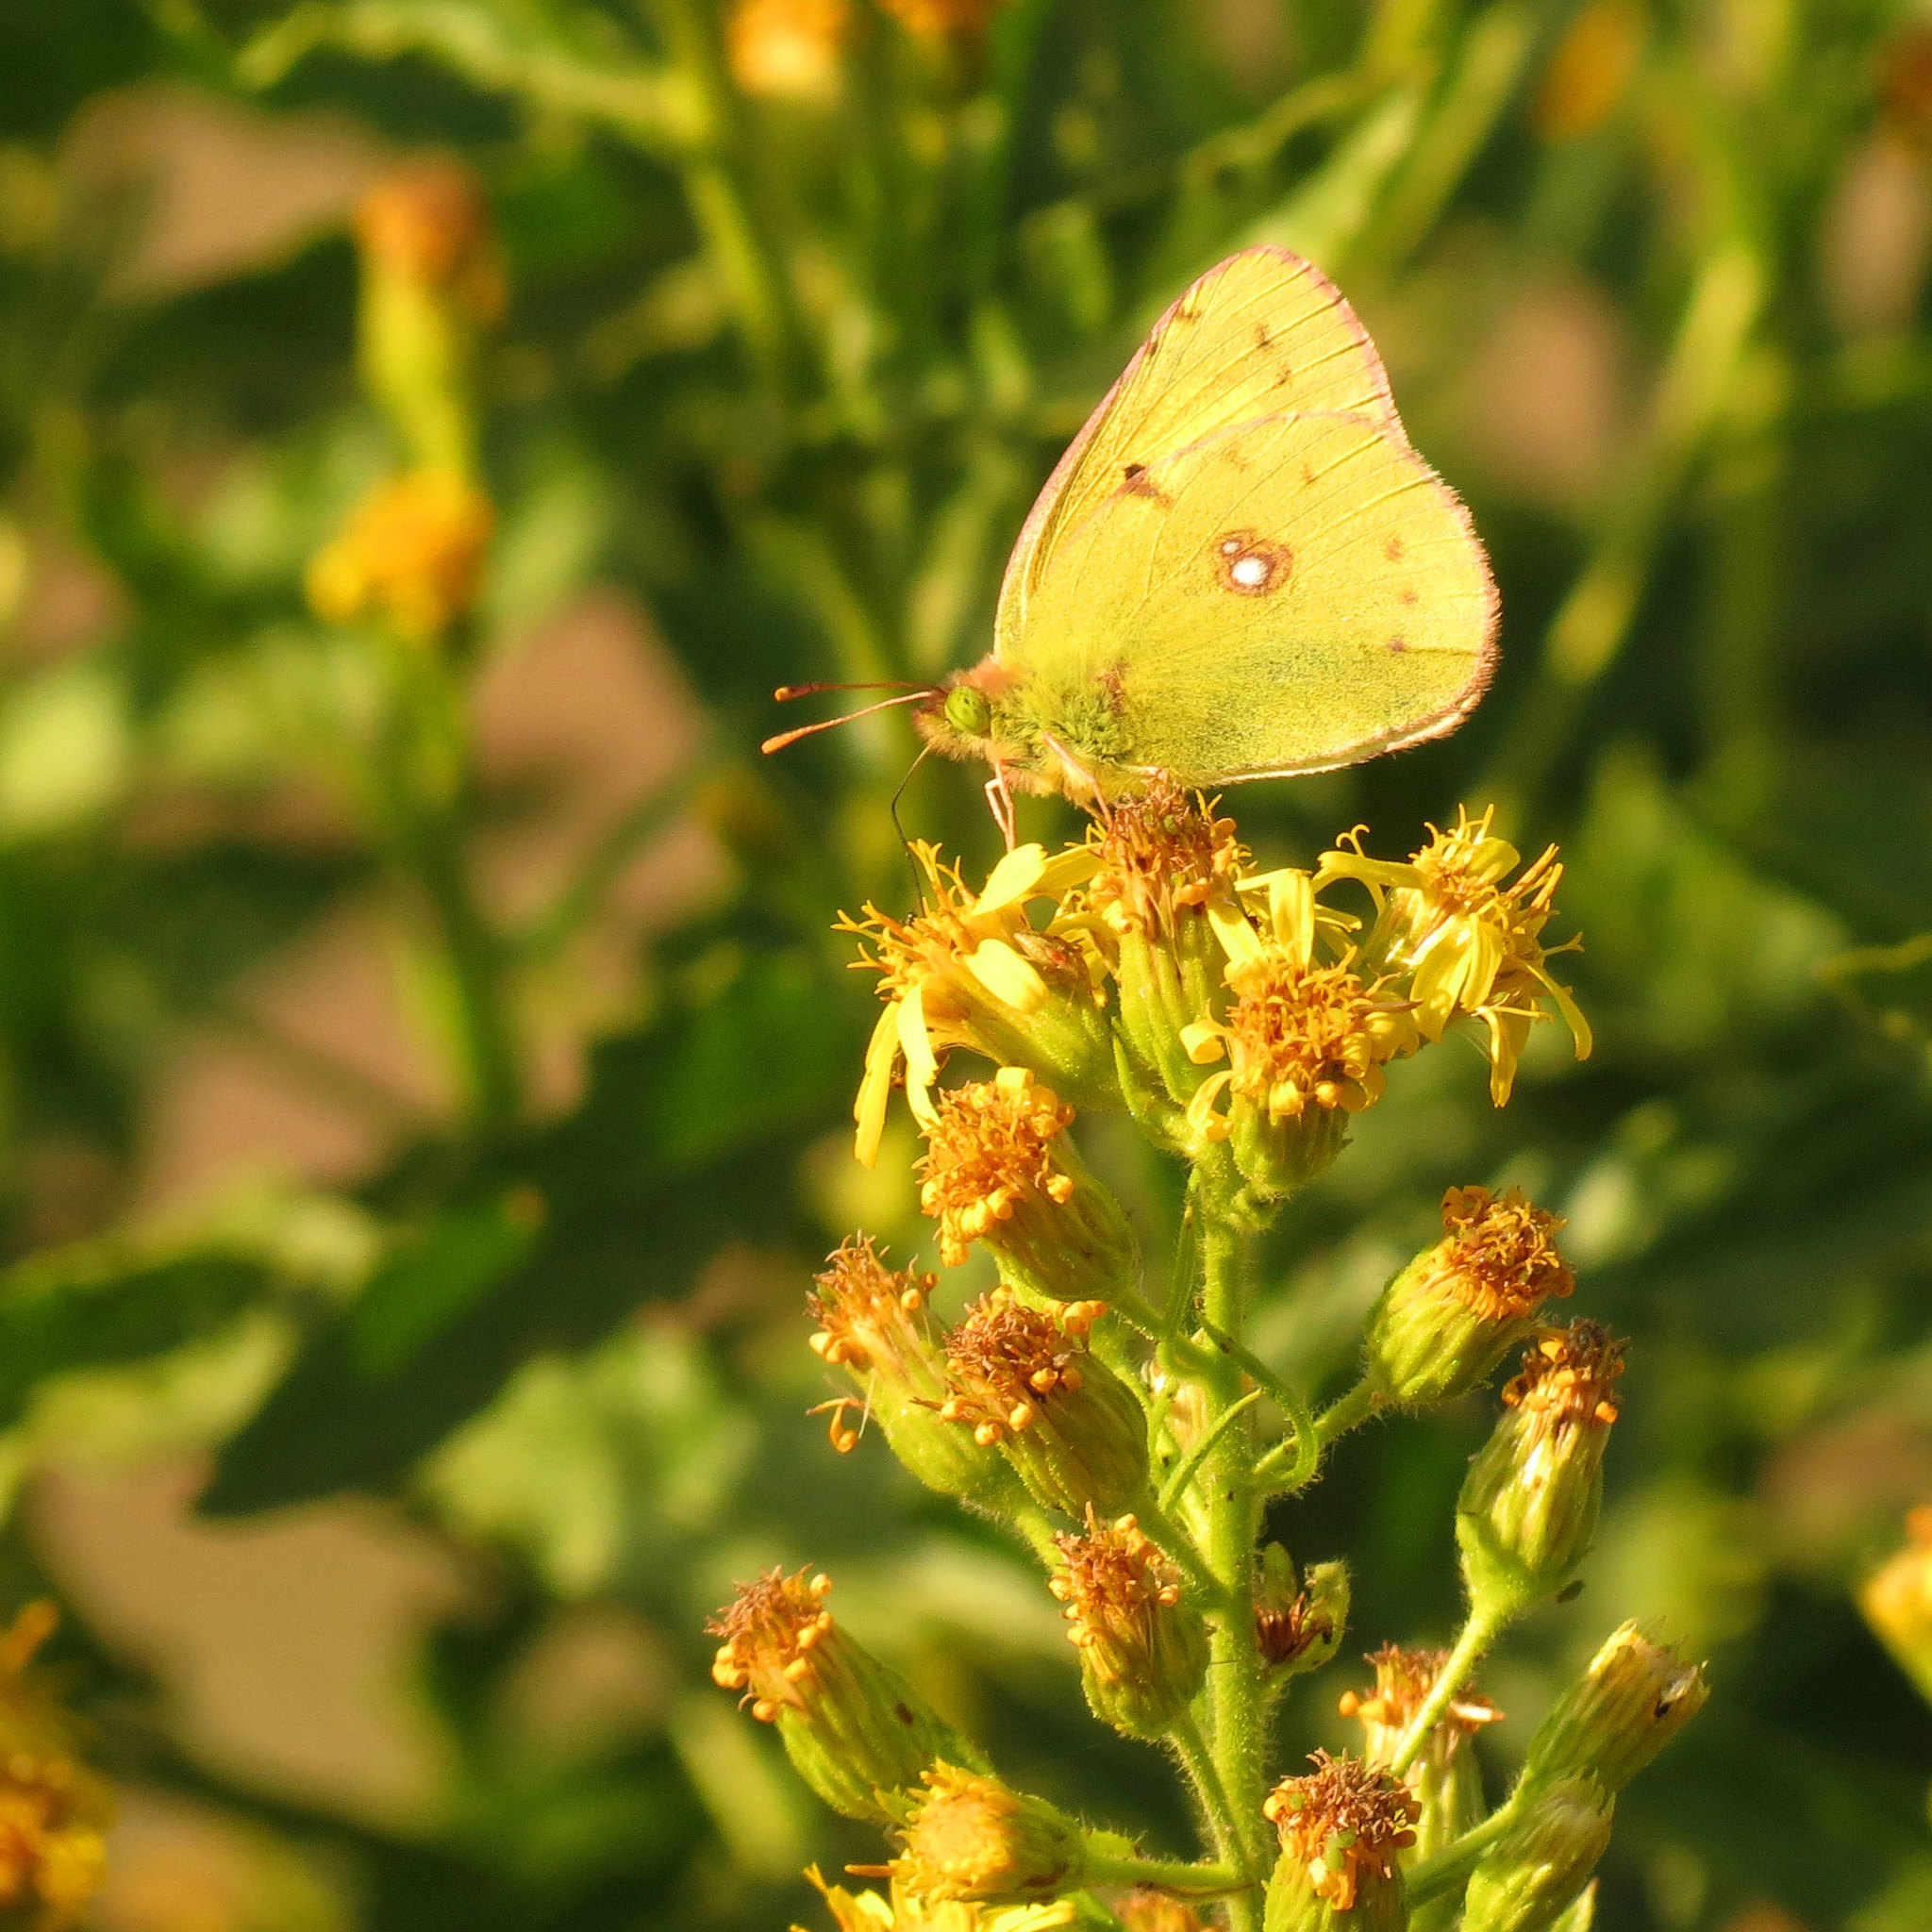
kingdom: Animalia
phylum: Arthropoda
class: Insecta
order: Lepidoptera
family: Pieridae
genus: Colias
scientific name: Colias croceus
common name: Clouded yellow
